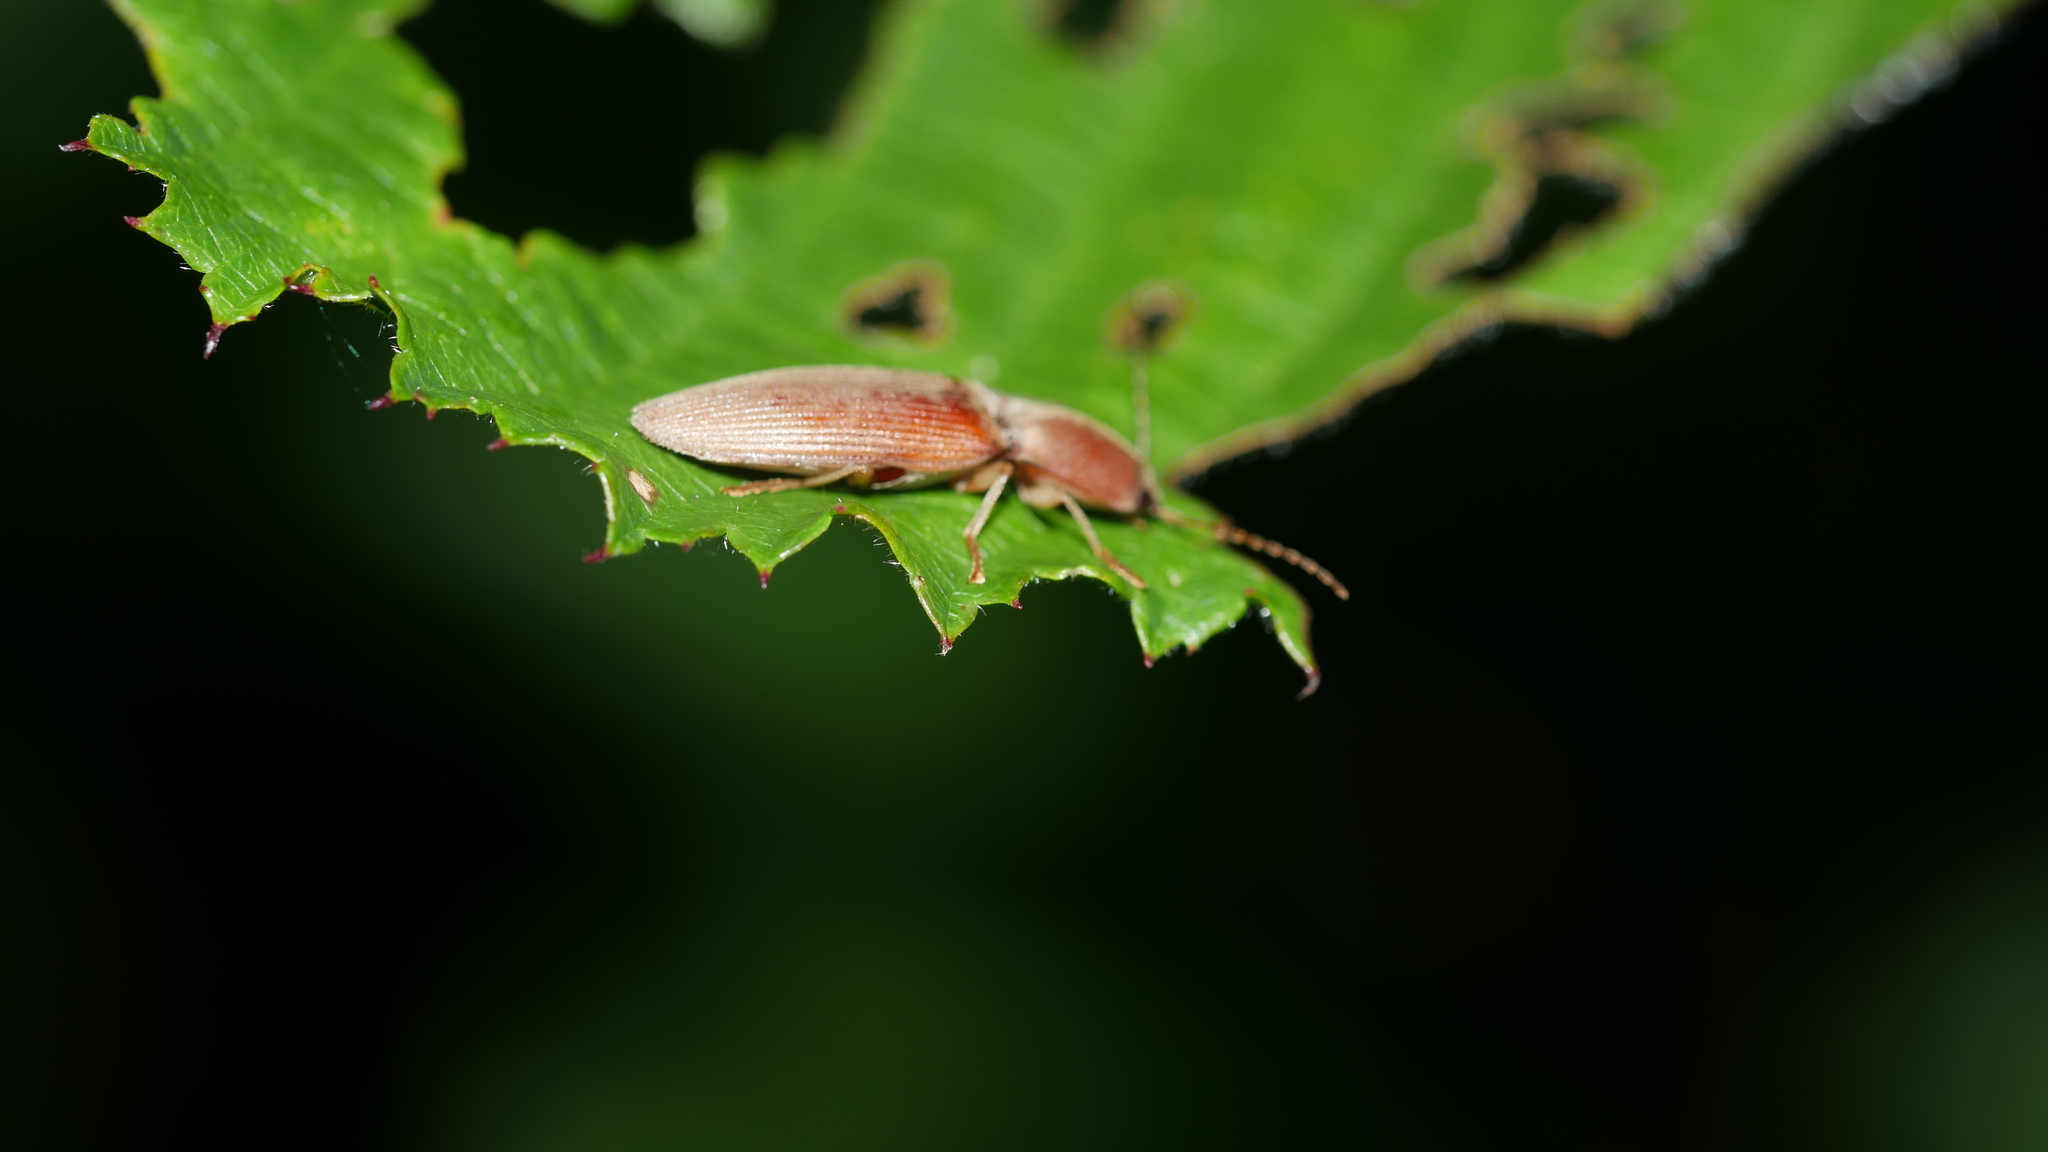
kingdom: Animalia
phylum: Arthropoda
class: Insecta
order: Coleoptera
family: Elateridae
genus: Monocrepidius
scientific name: Monocrepidius lividus
